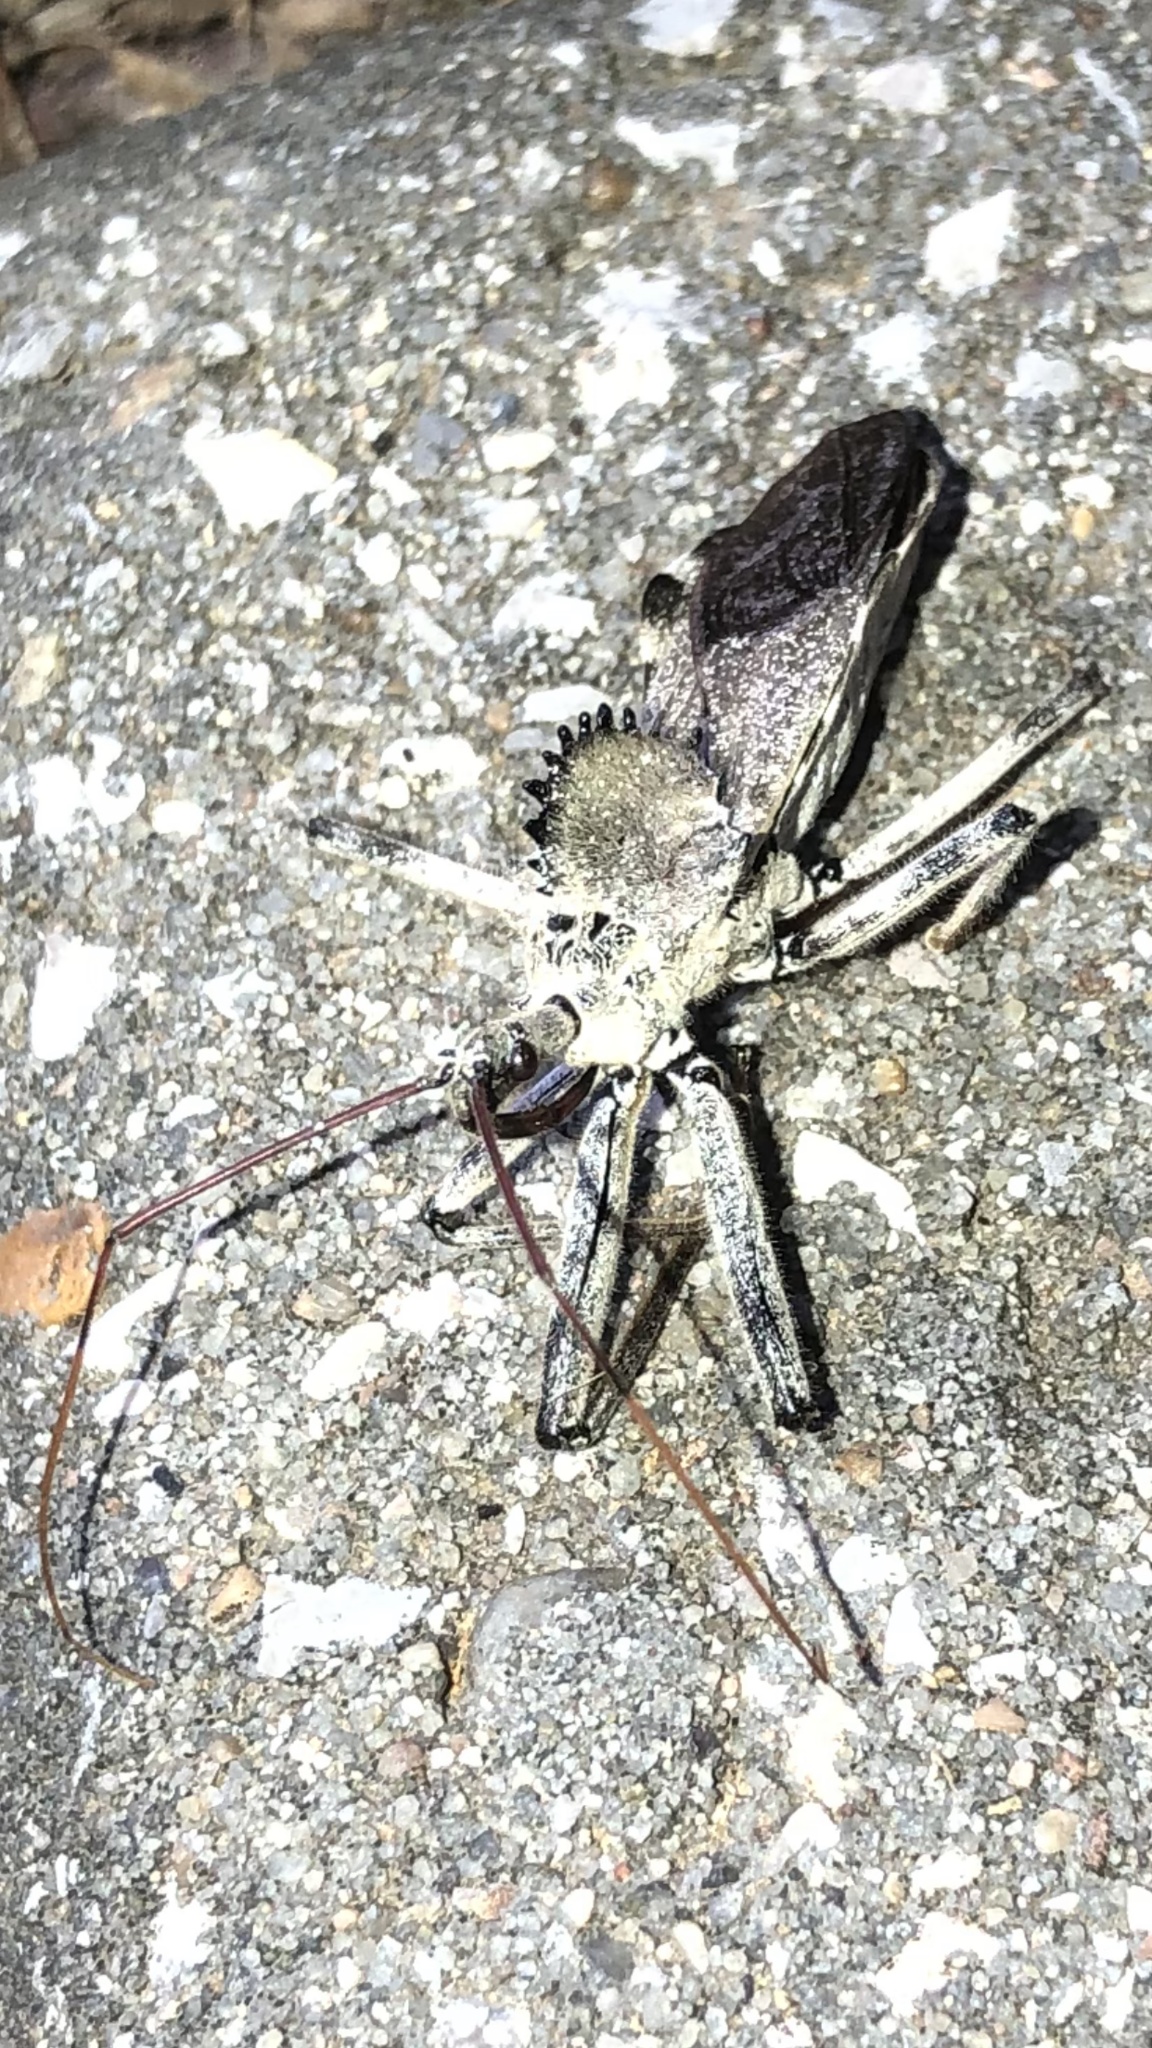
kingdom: Animalia
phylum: Arthropoda
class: Insecta
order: Hemiptera
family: Reduviidae
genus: Arilus
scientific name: Arilus cristatus
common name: North american wheel bug
